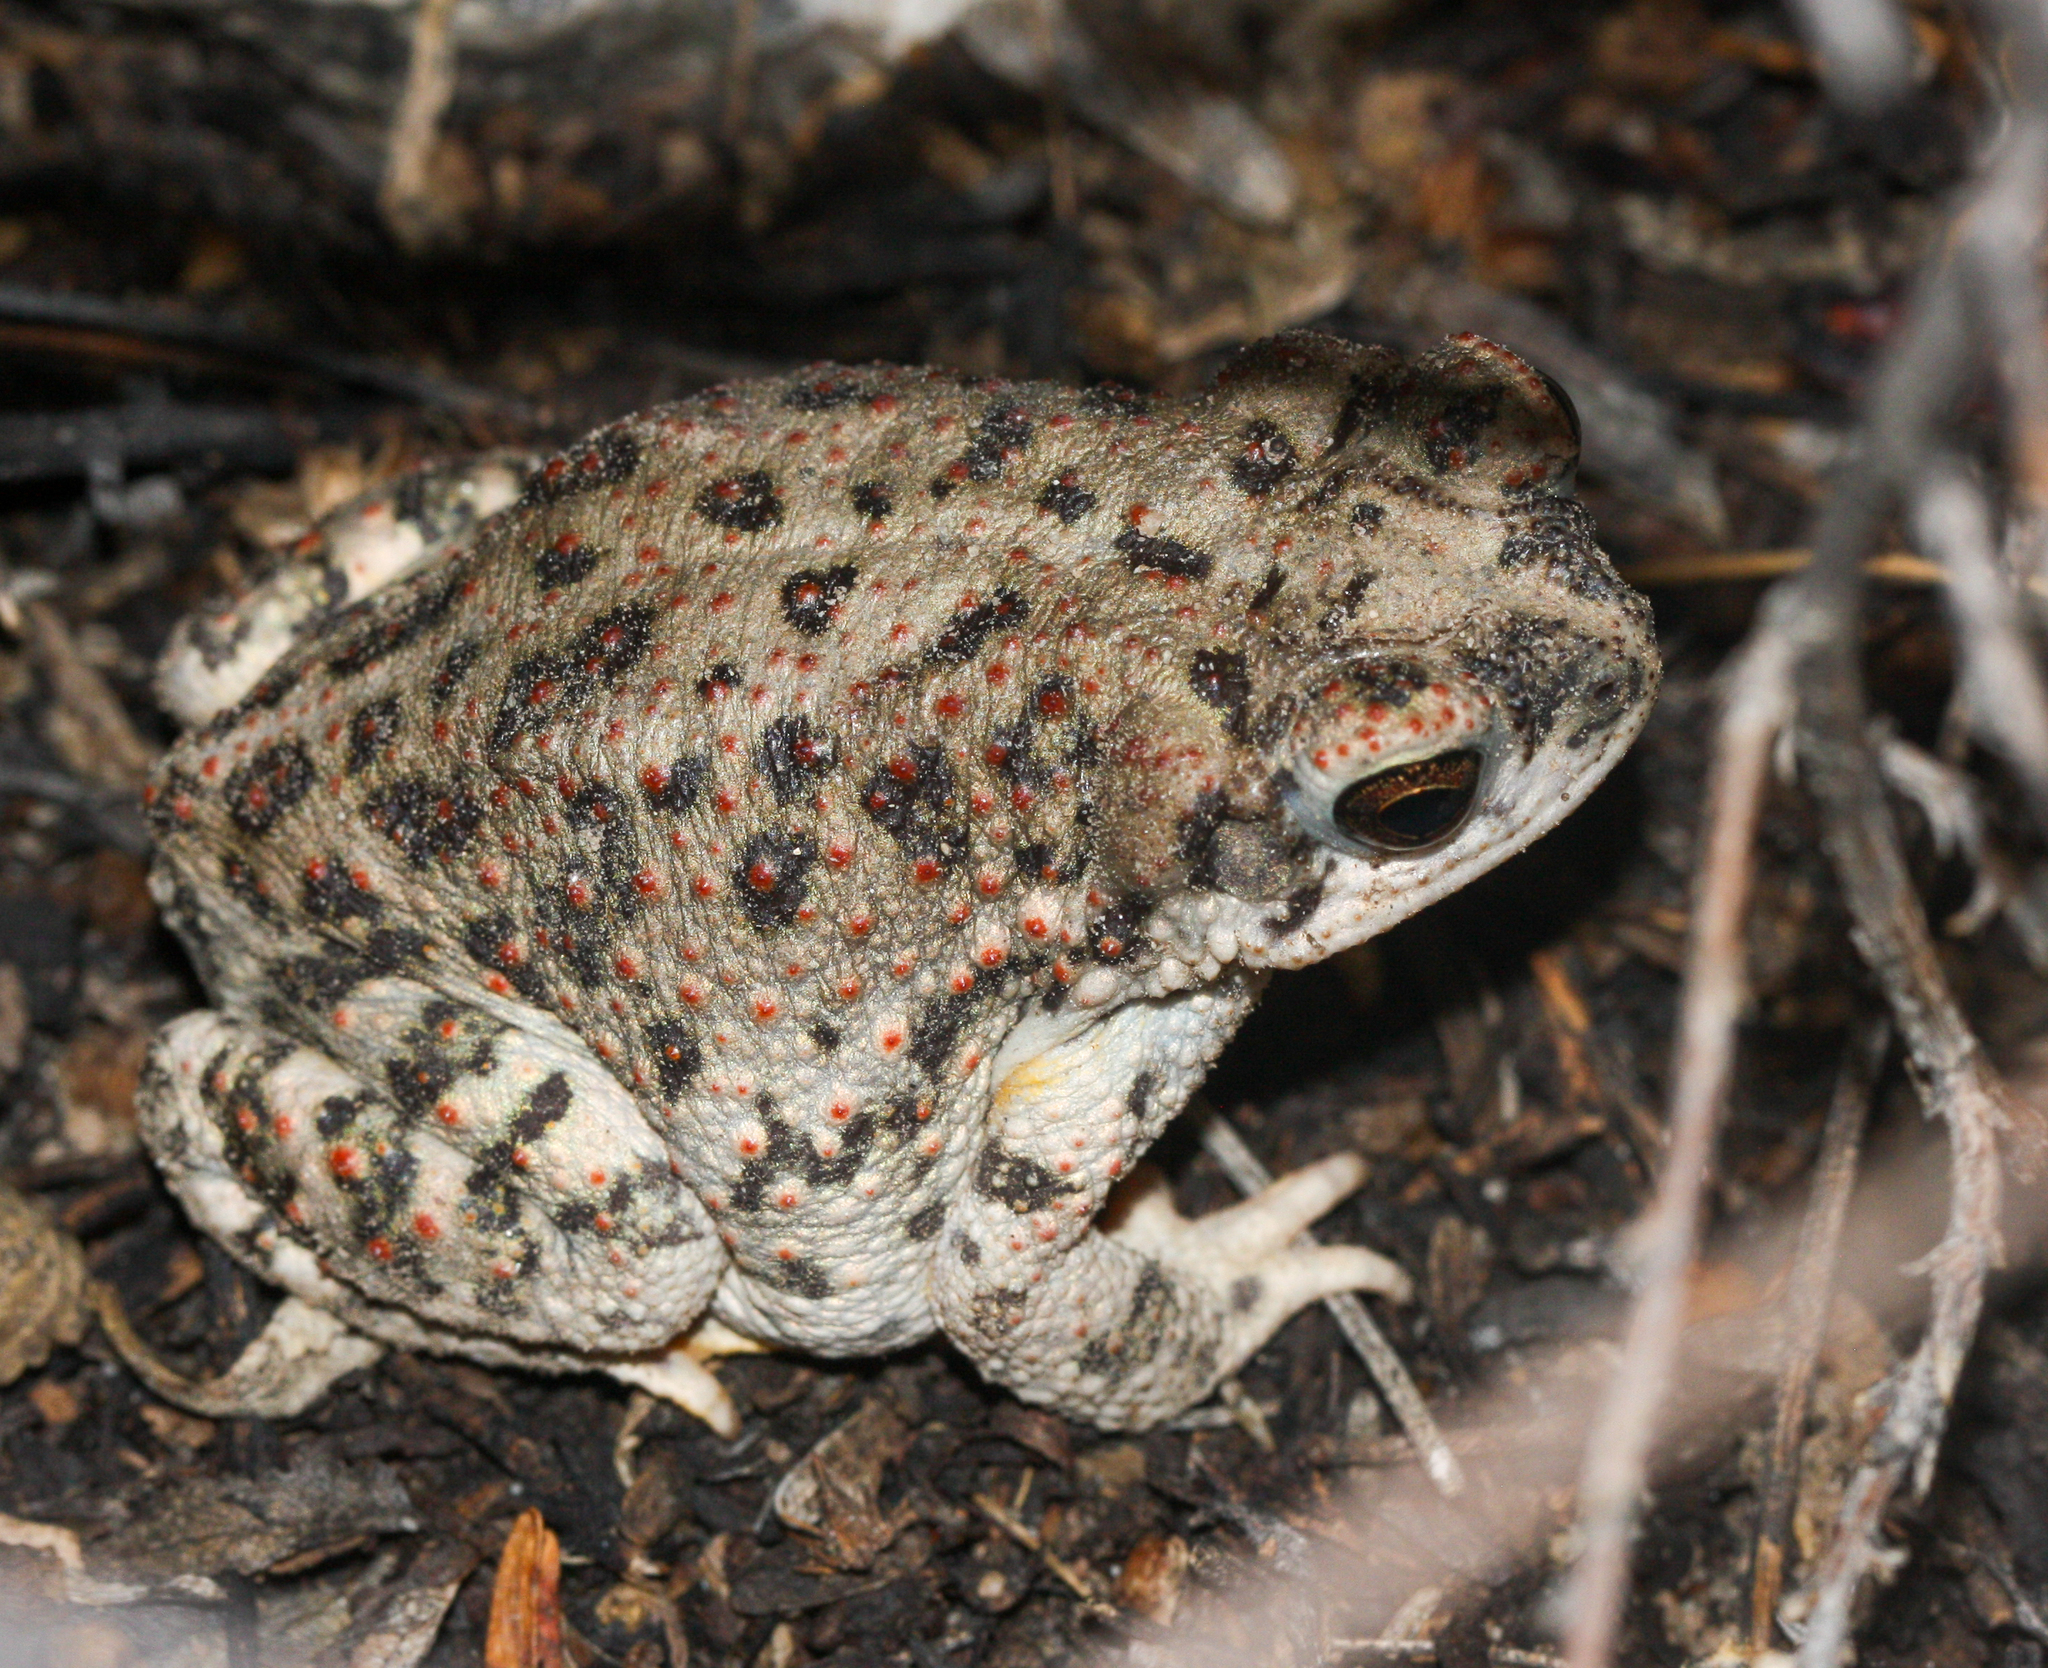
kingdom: Animalia
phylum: Chordata
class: Amphibia
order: Anura
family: Bufonidae
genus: Anaxyrus
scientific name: Anaxyrus punctatus
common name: Red-spotted toad
